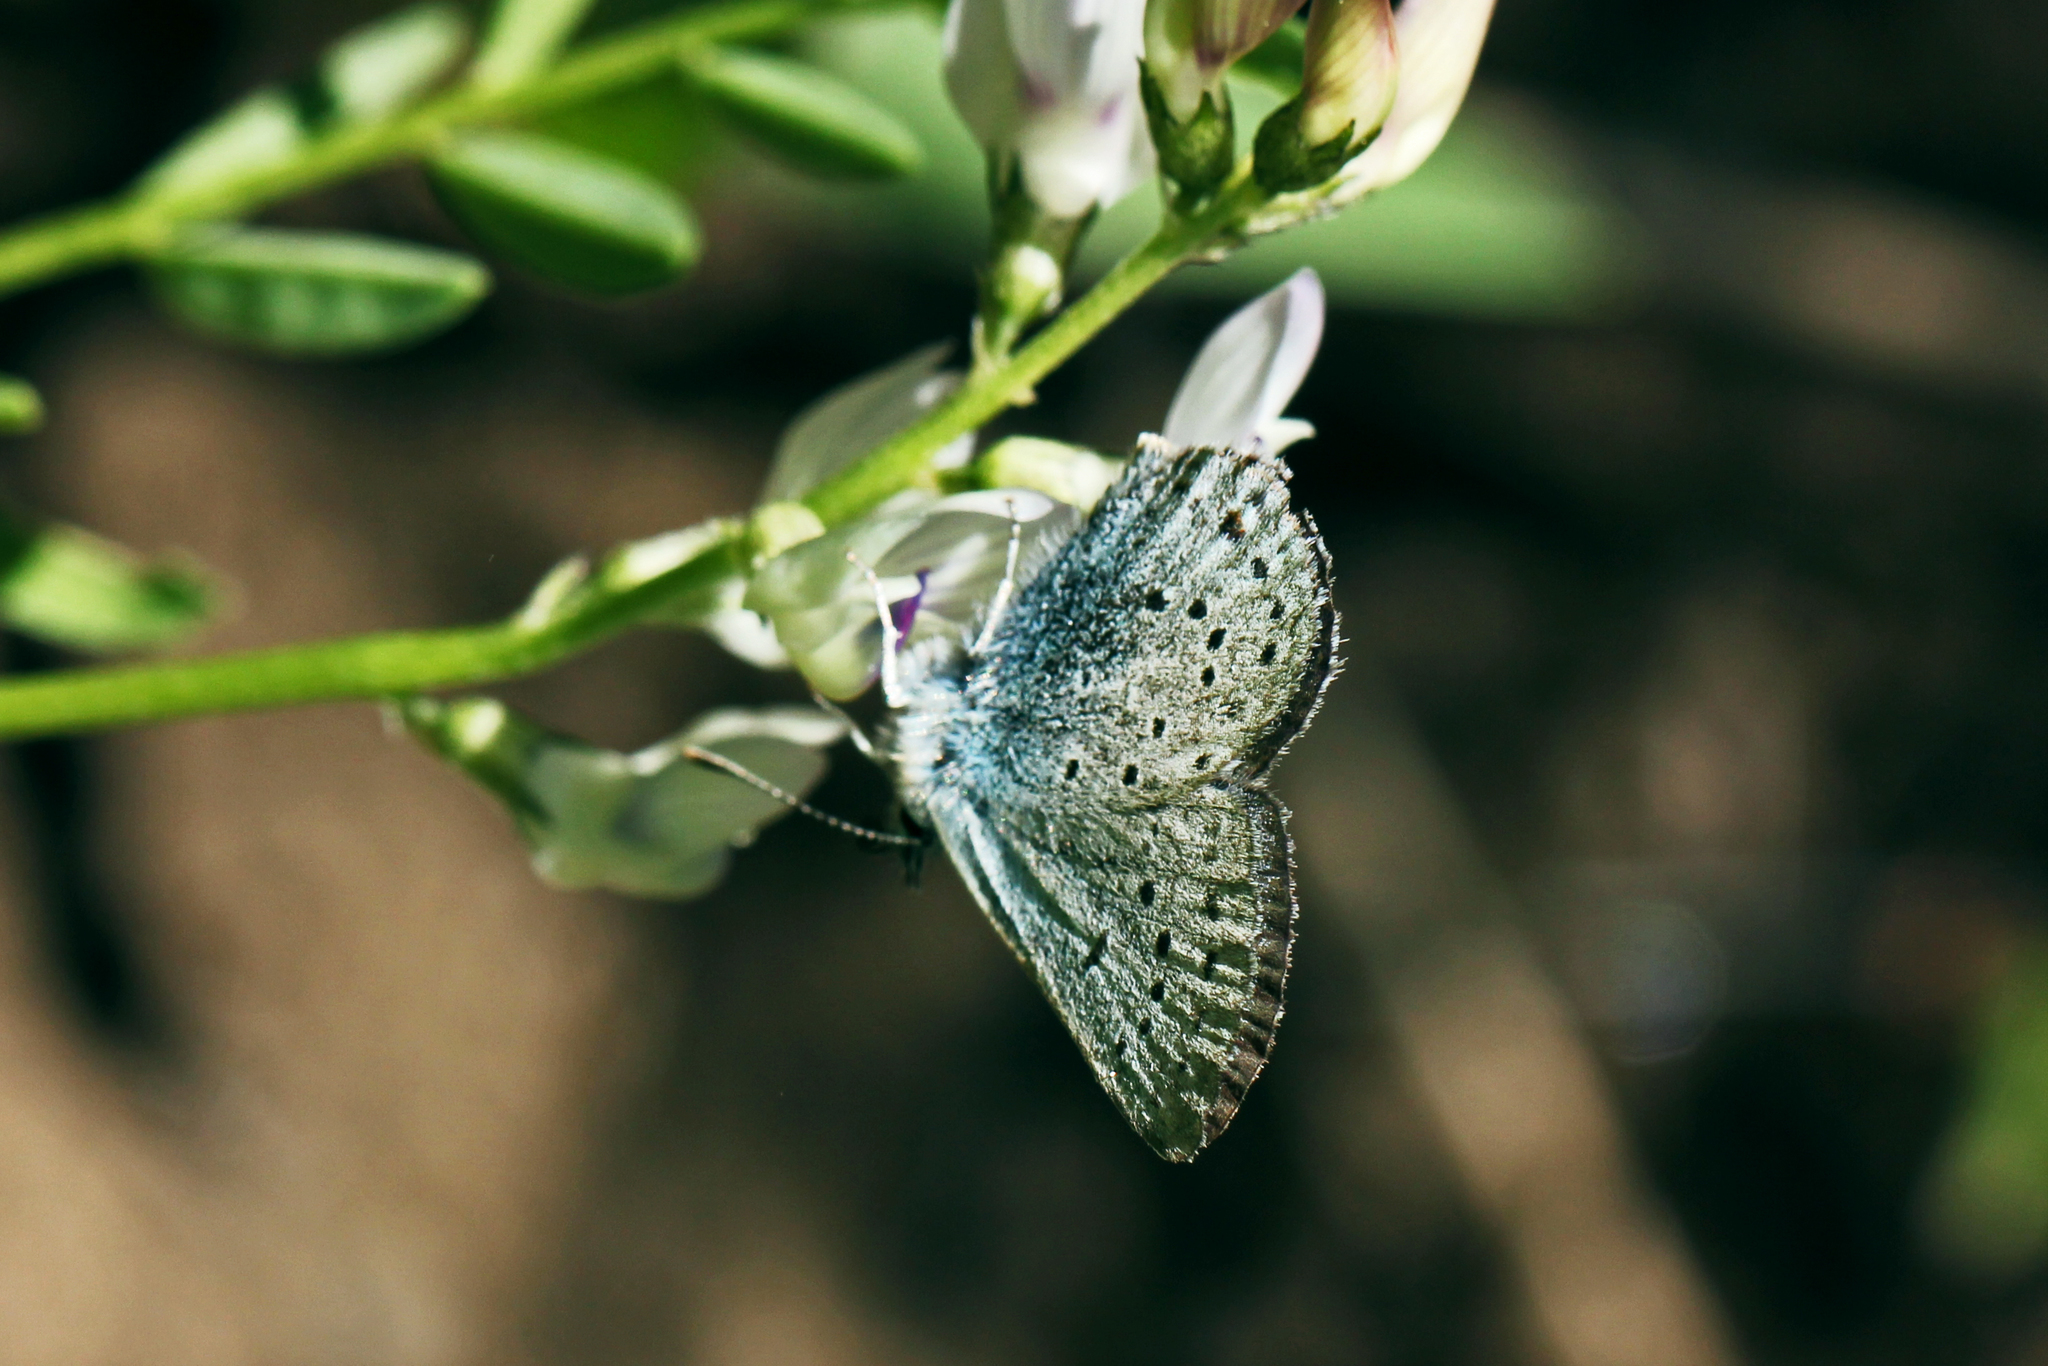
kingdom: Animalia
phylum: Arthropoda
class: Insecta
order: Lepidoptera
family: Lycaenidae
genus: Icaricia
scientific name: Icaricia saepiolus
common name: Greenish blue
